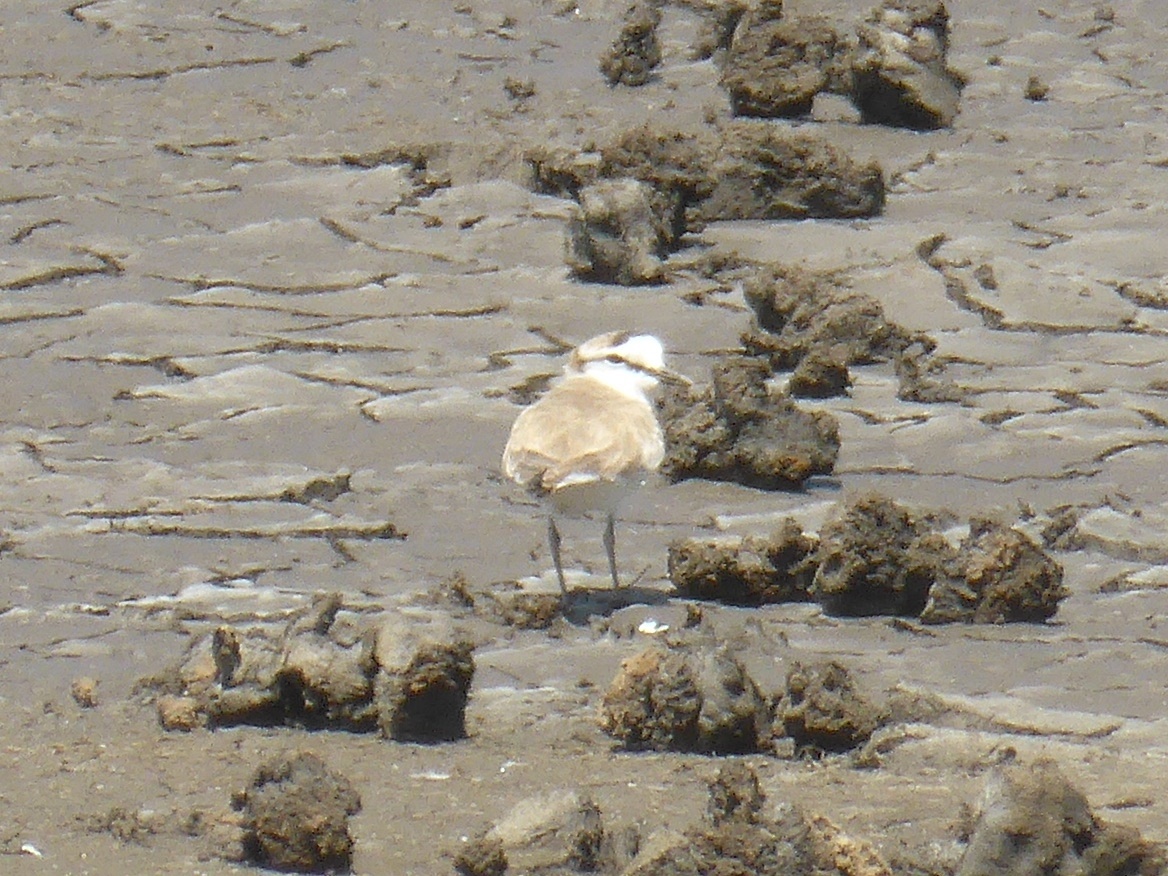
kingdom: Animalia
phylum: Chordata
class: Aves
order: Charadriiformes
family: Charadriidae
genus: Anarhynchus
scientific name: Anarhynchus
